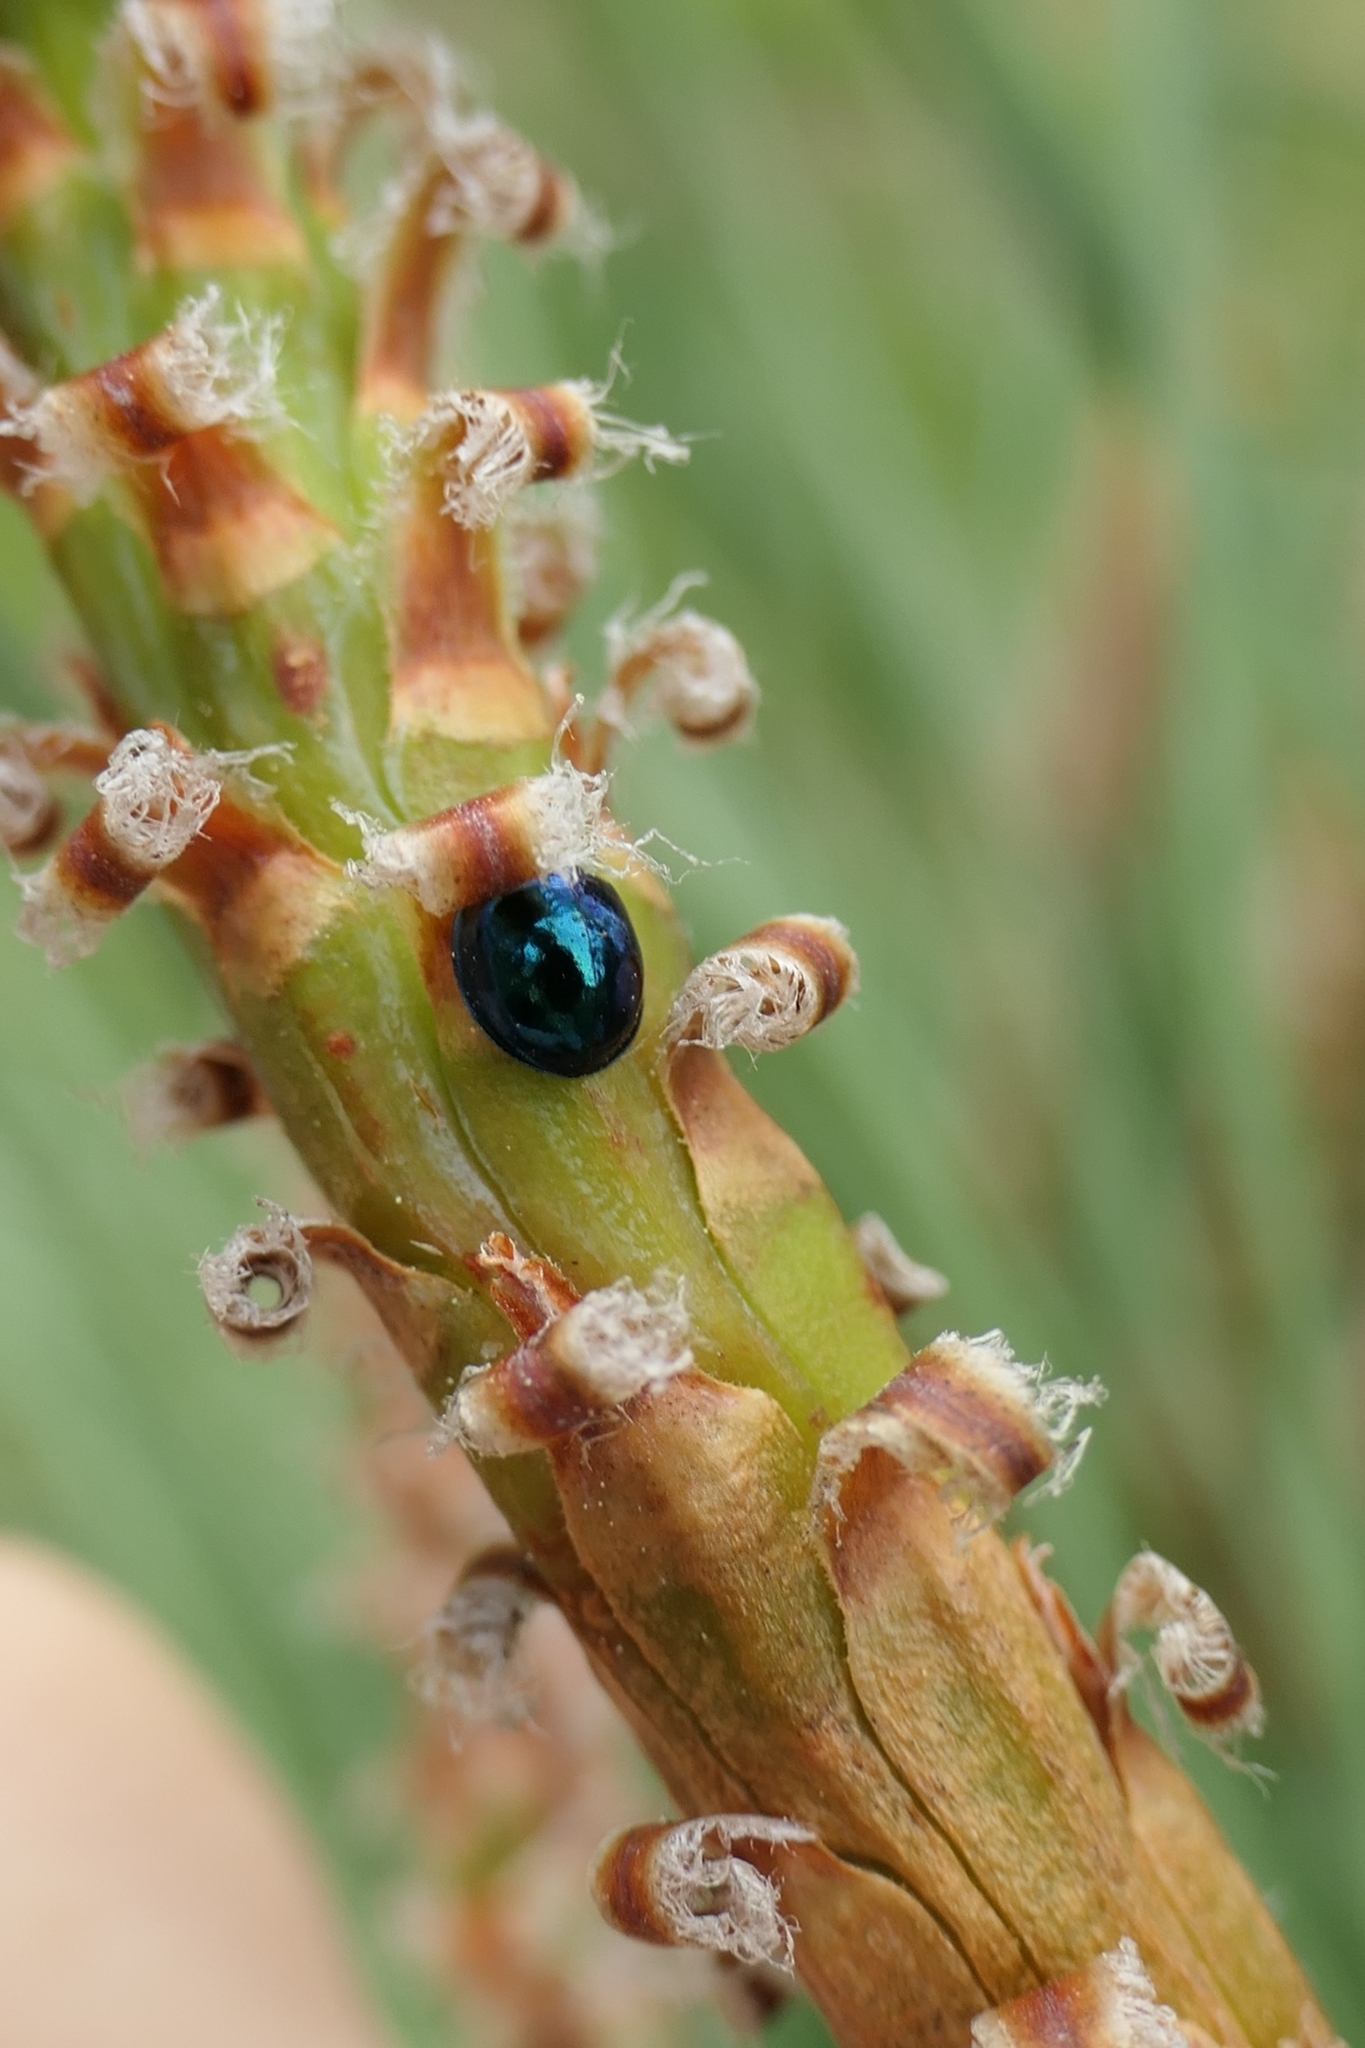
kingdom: Animalia
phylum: Arthropoda
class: Insecta
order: Coleoptera
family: Coccinellidae
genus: Halmus
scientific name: Halmus chalybeus
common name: Steel blue ladybird beetle
